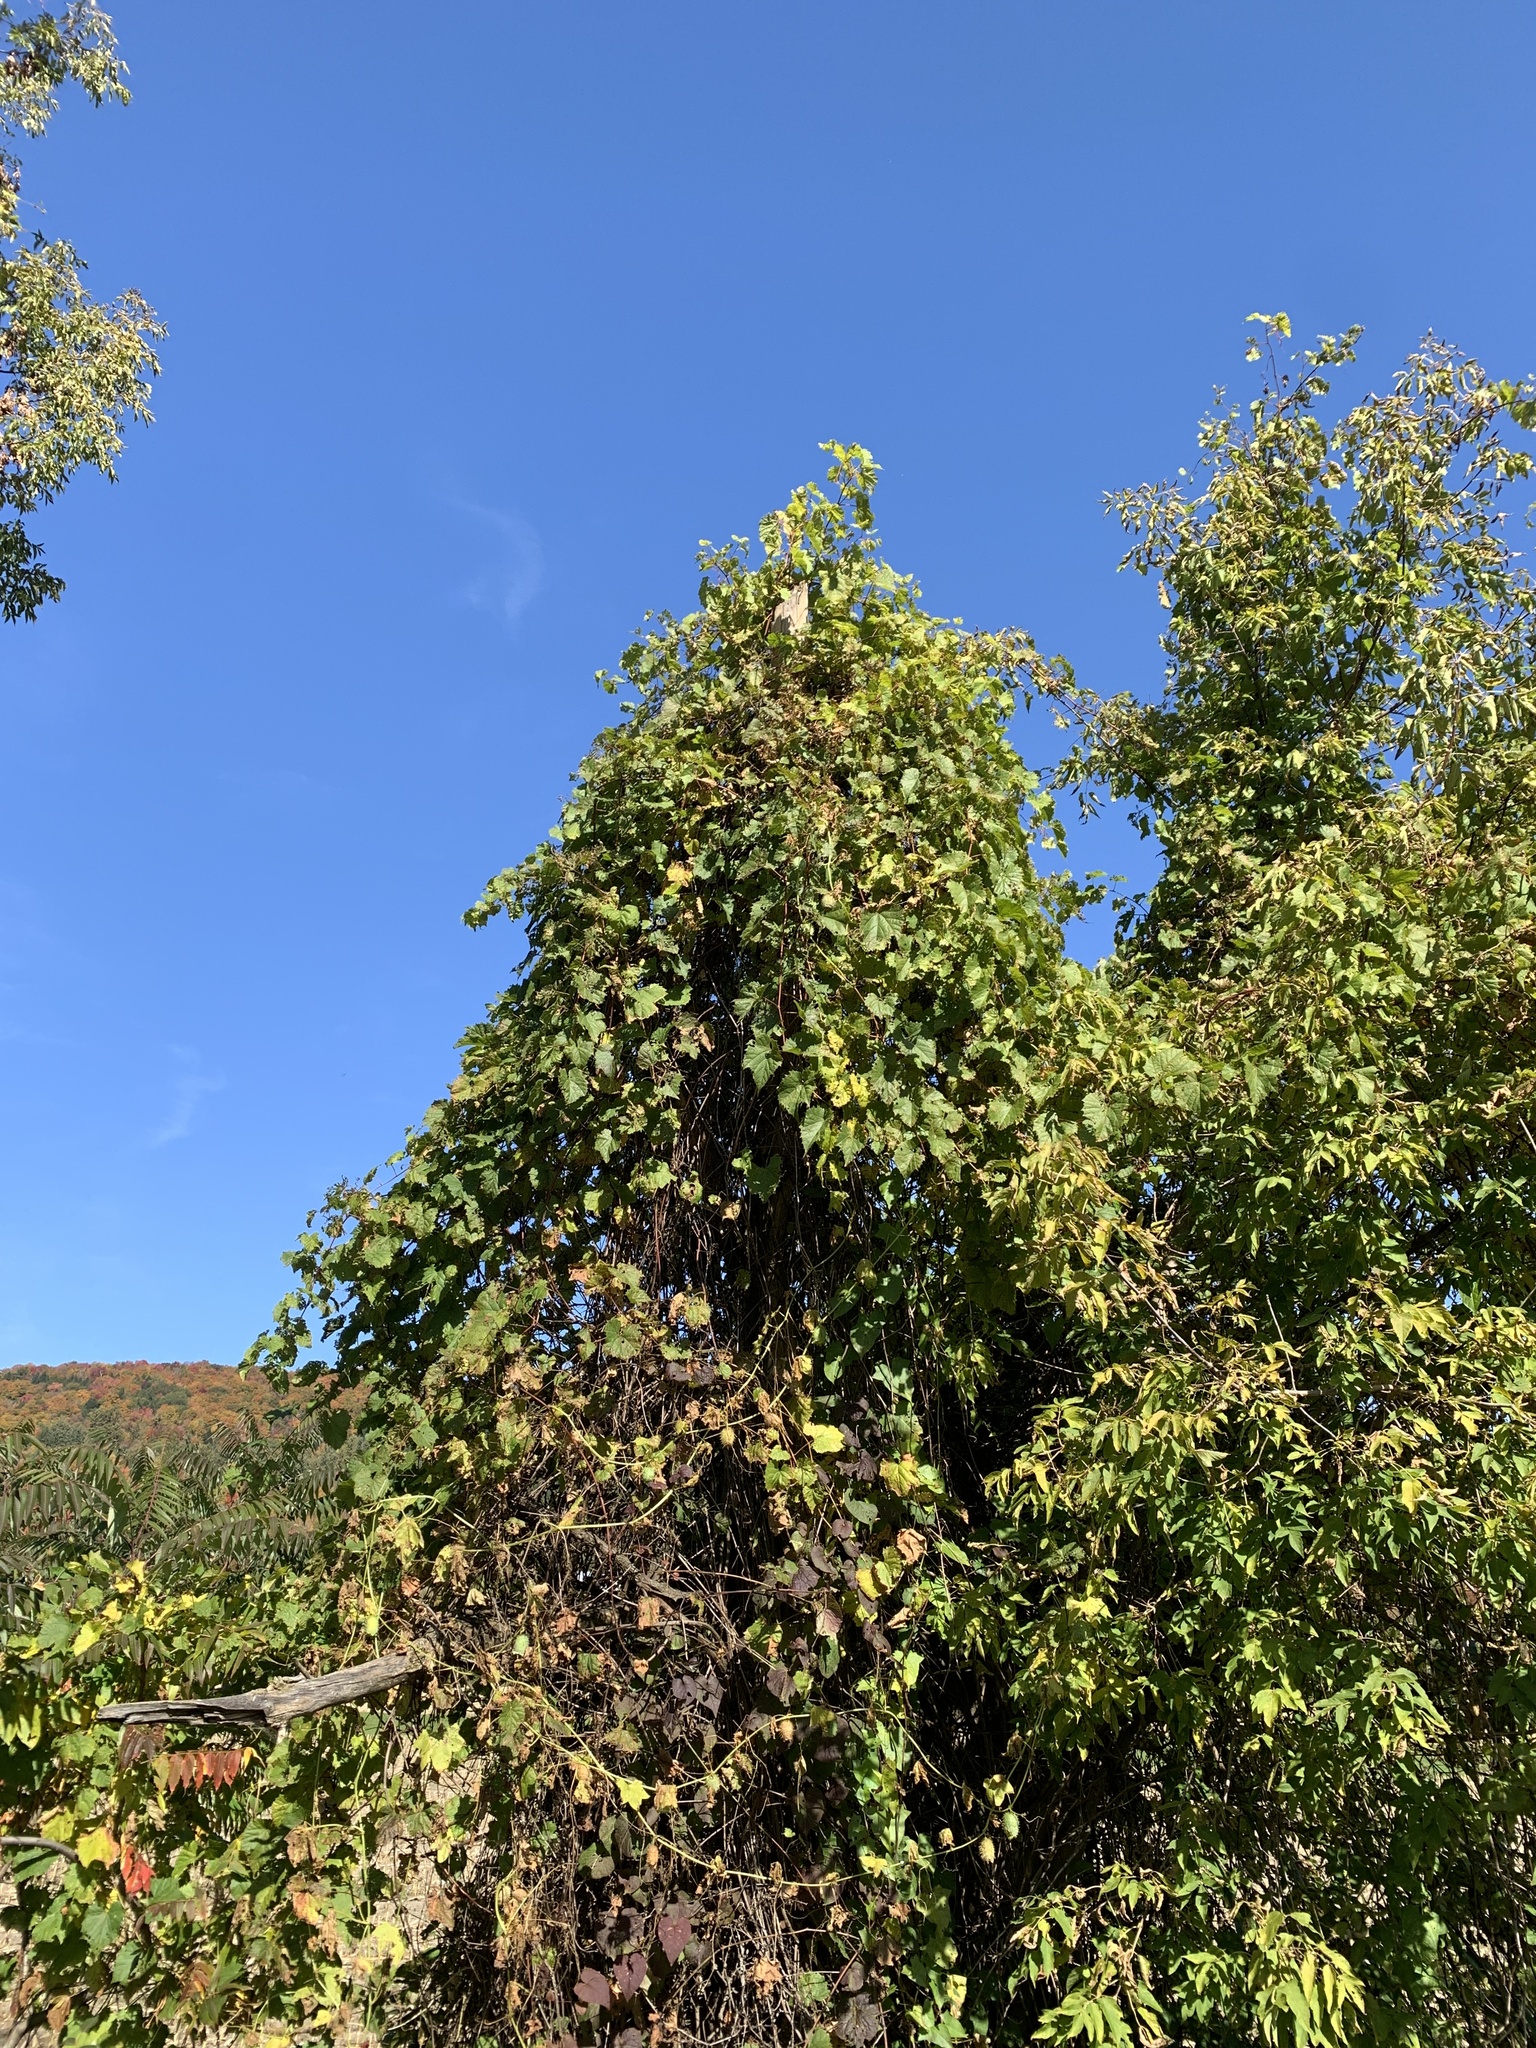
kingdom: Plantae
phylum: Tracheophyta
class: Magnoliopsida
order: Vitales
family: Vitaceae
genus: Vitis
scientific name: Vitis riparia
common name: Frost grape
